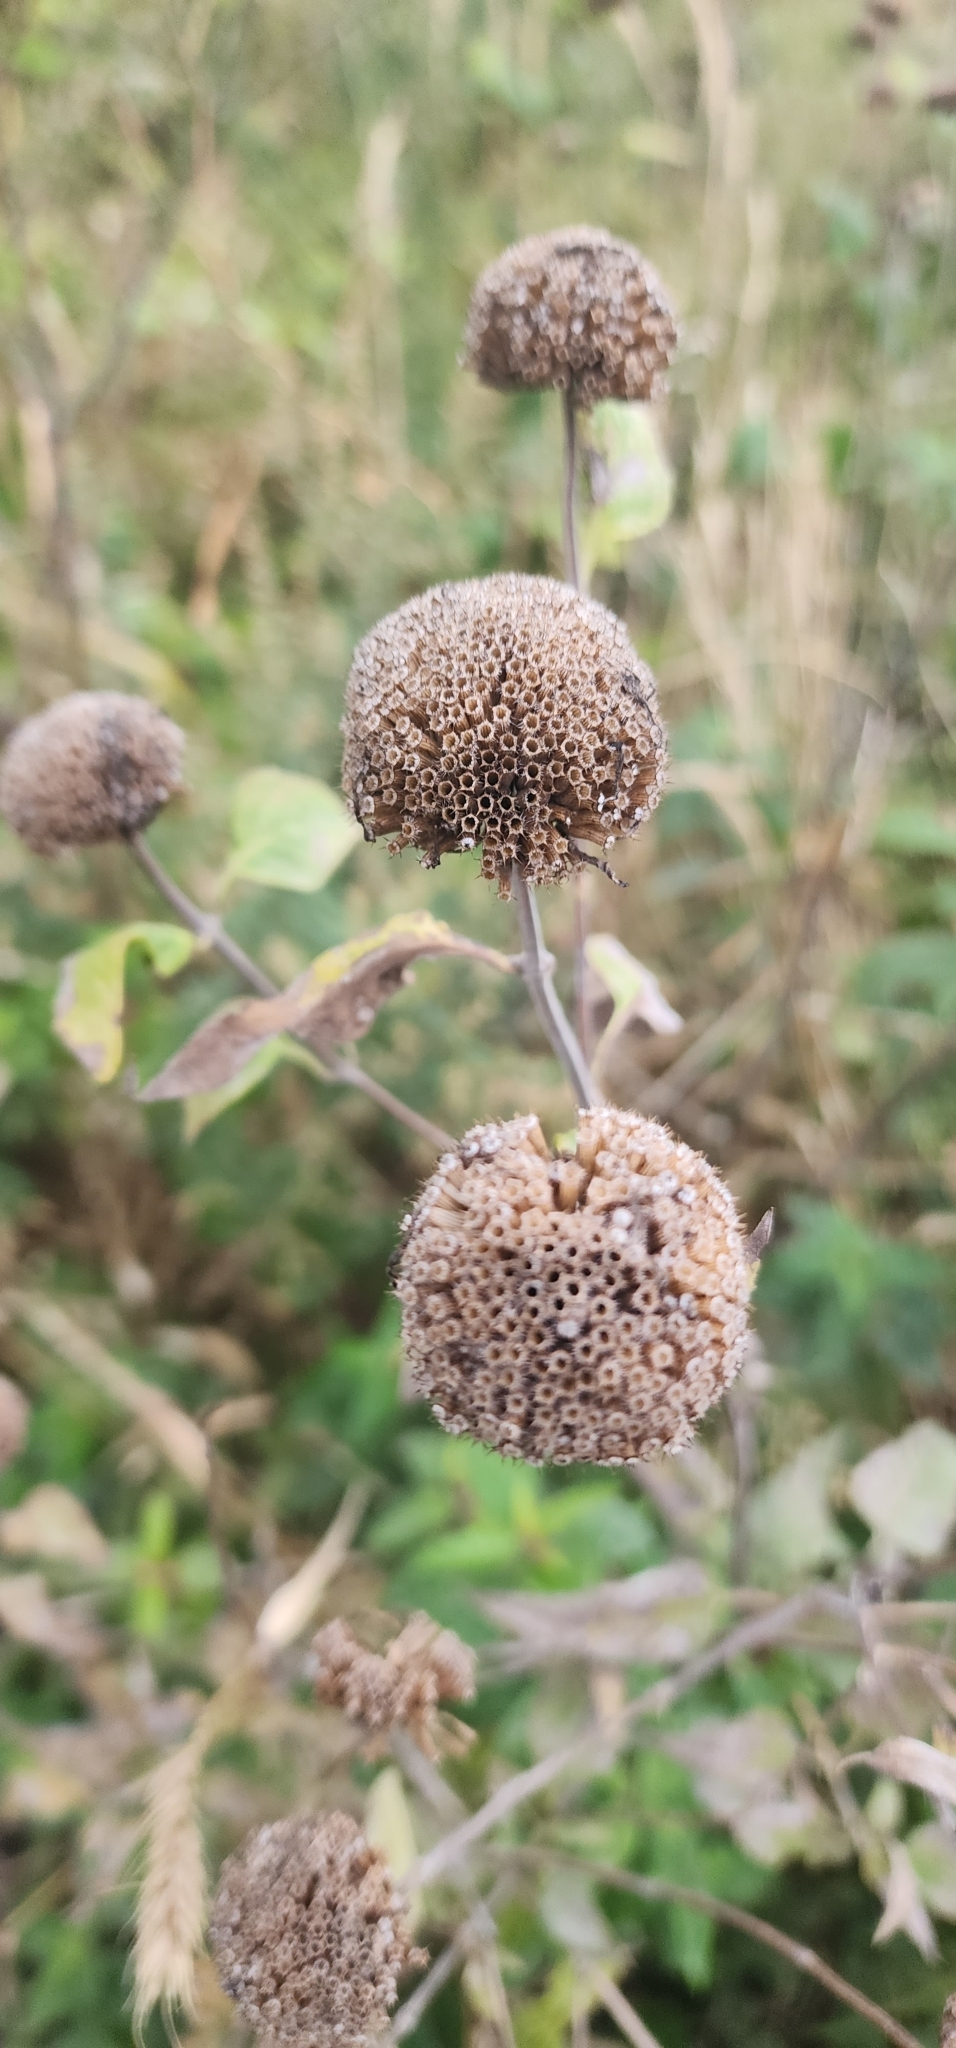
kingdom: Plantae
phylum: Tracheophyta
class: Magnoliopsida
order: Lamiales
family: Lamiaceae
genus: Monarda
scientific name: Monarda fistulosa
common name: Purple beebalm
